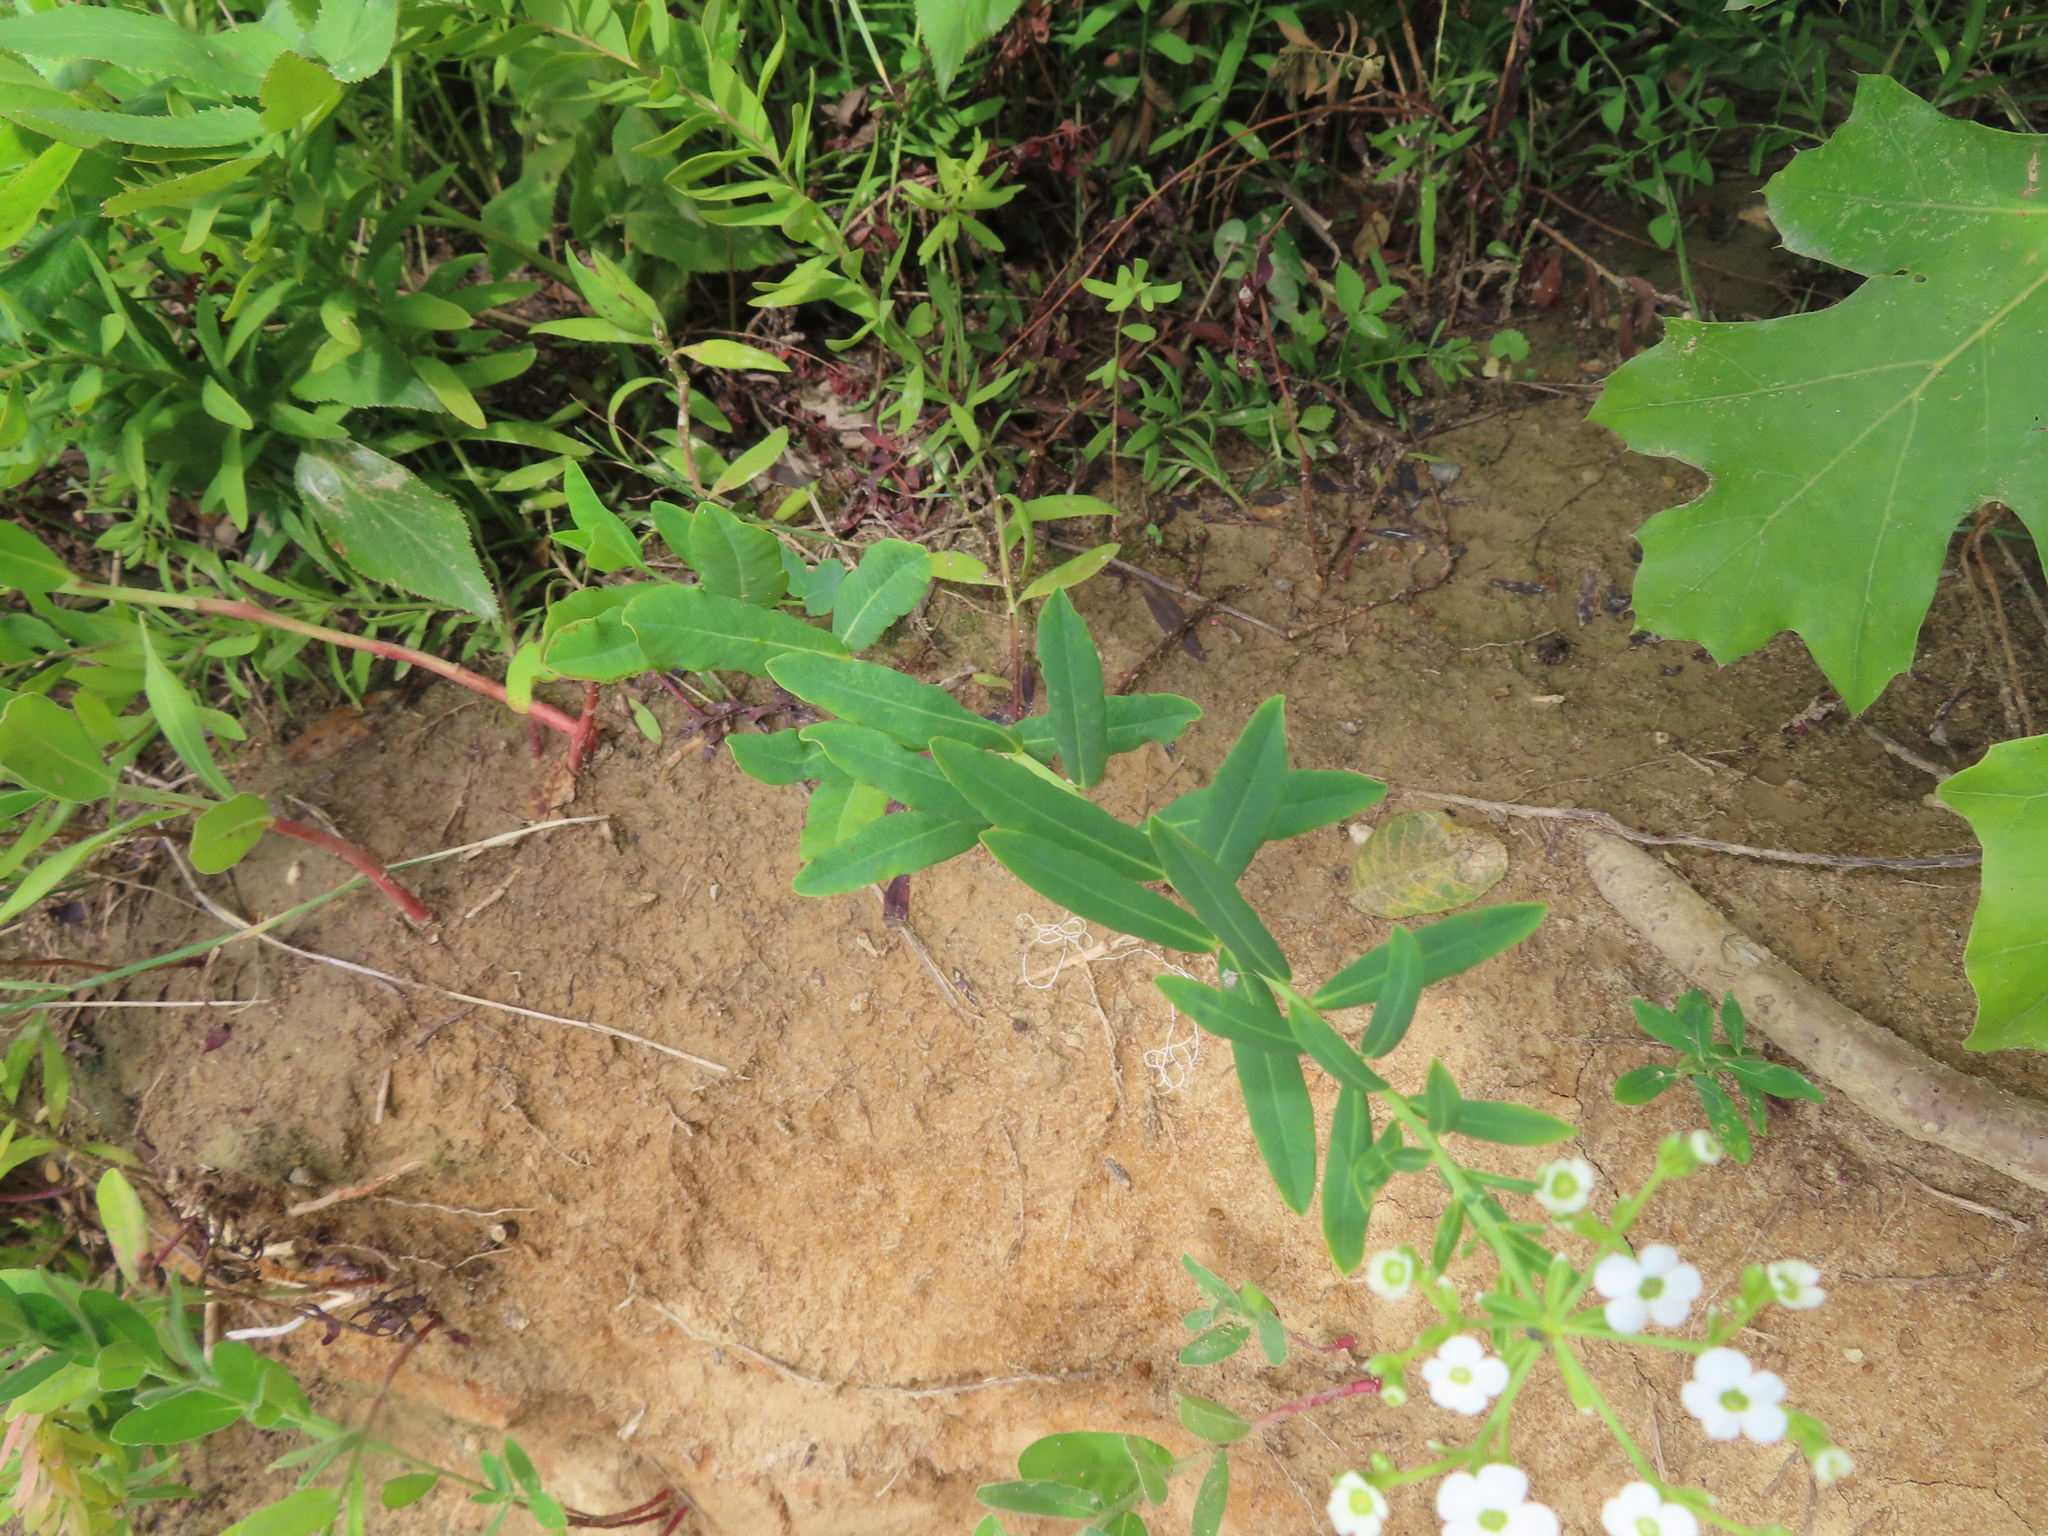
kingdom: Plantae
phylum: Tracheophyta
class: Magnoliopsida
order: Malpighiales
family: Euphorbiaceae
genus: Euphorbia
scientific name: Euphorbia corollata
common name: Flowering spurge
